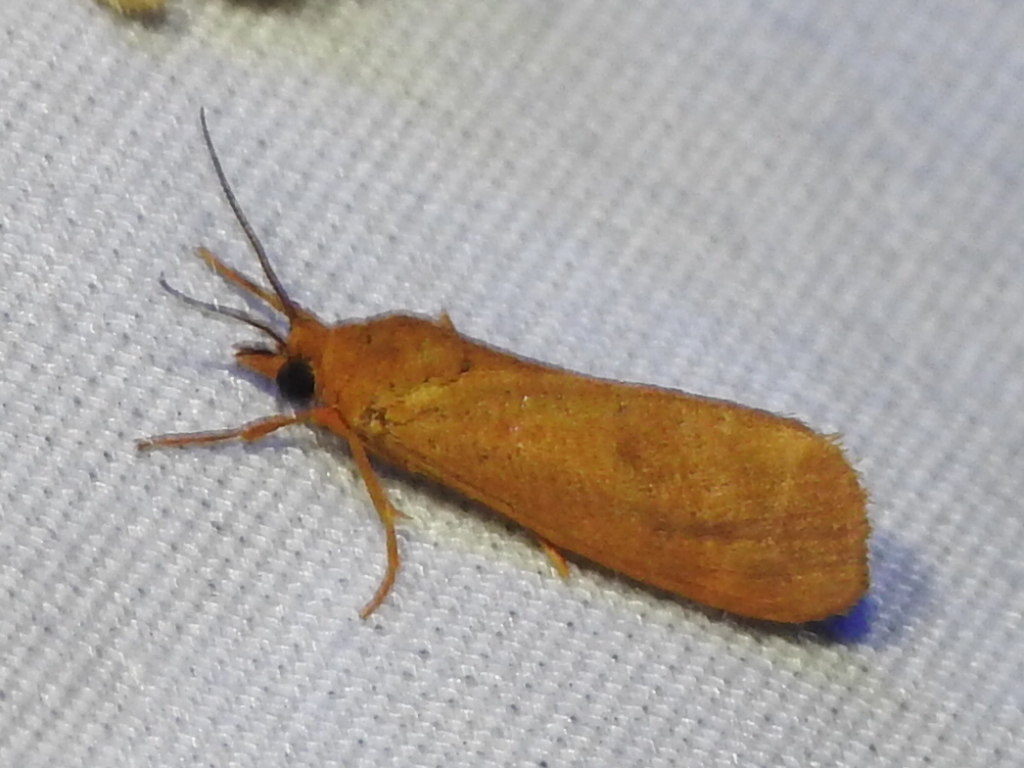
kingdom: Animalia
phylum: Arthropoda
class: Insecta
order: Lepidoptera
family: Erebidae
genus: Virbia
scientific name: Virbia aurantiaca
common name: Orange virbia moth
